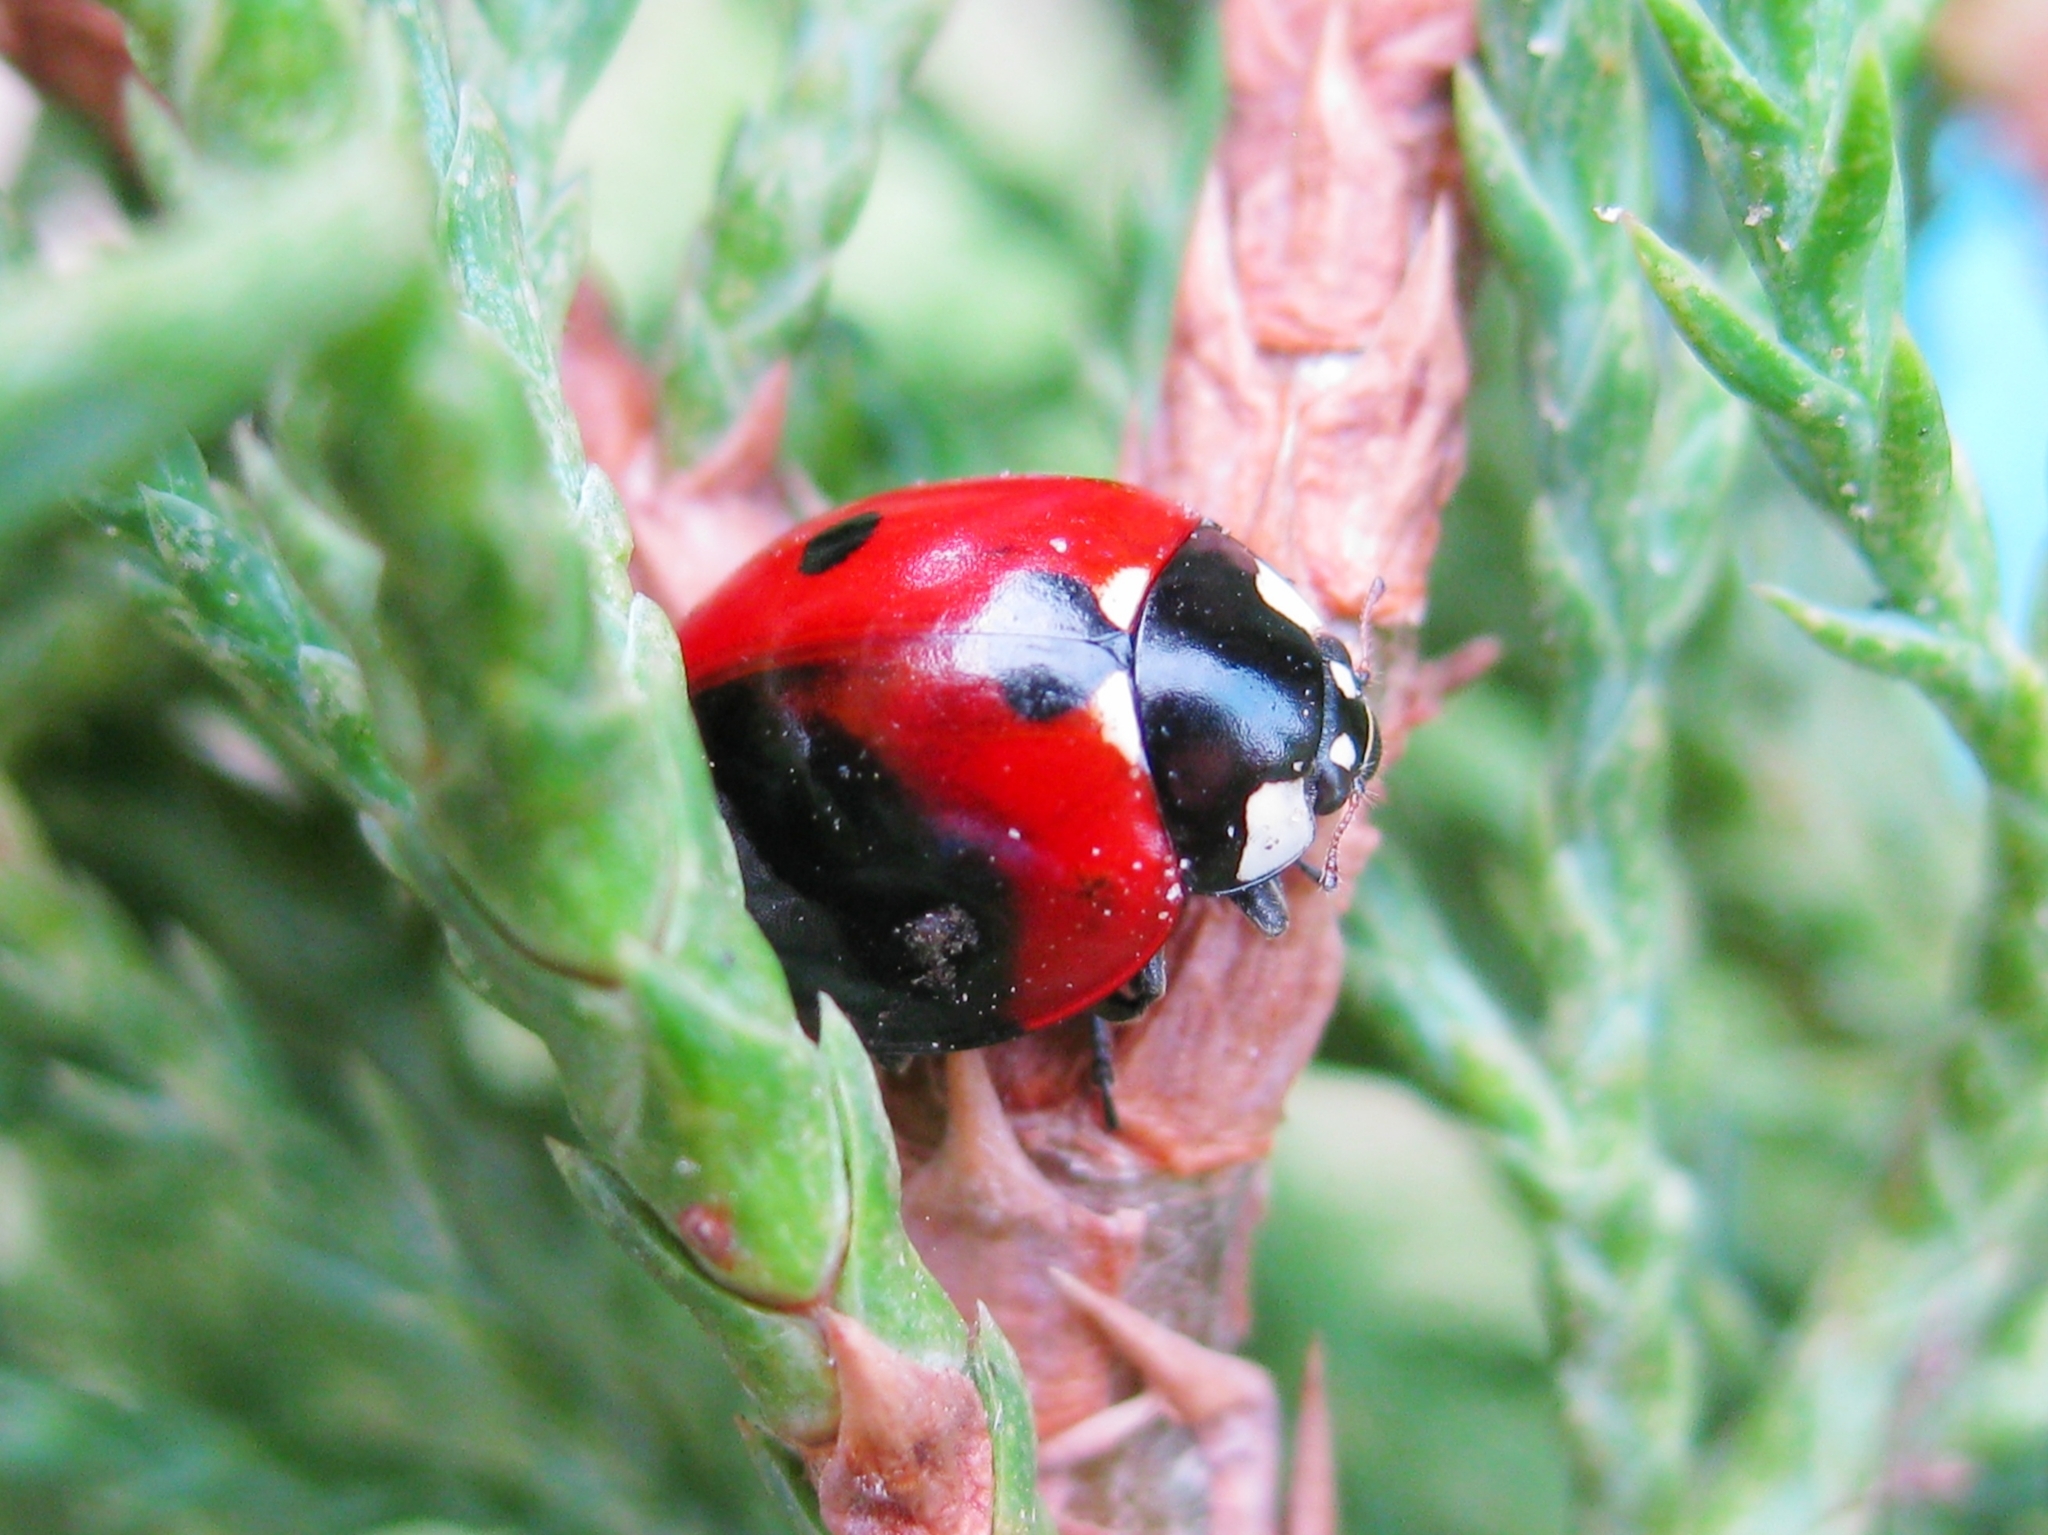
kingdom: Animalia
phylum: Arthropoda
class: Insecta
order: Coleoptera
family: Coccinellidae
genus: Coccinella
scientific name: Coccinella septempunctata
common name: Sevenspotted lady beetle
